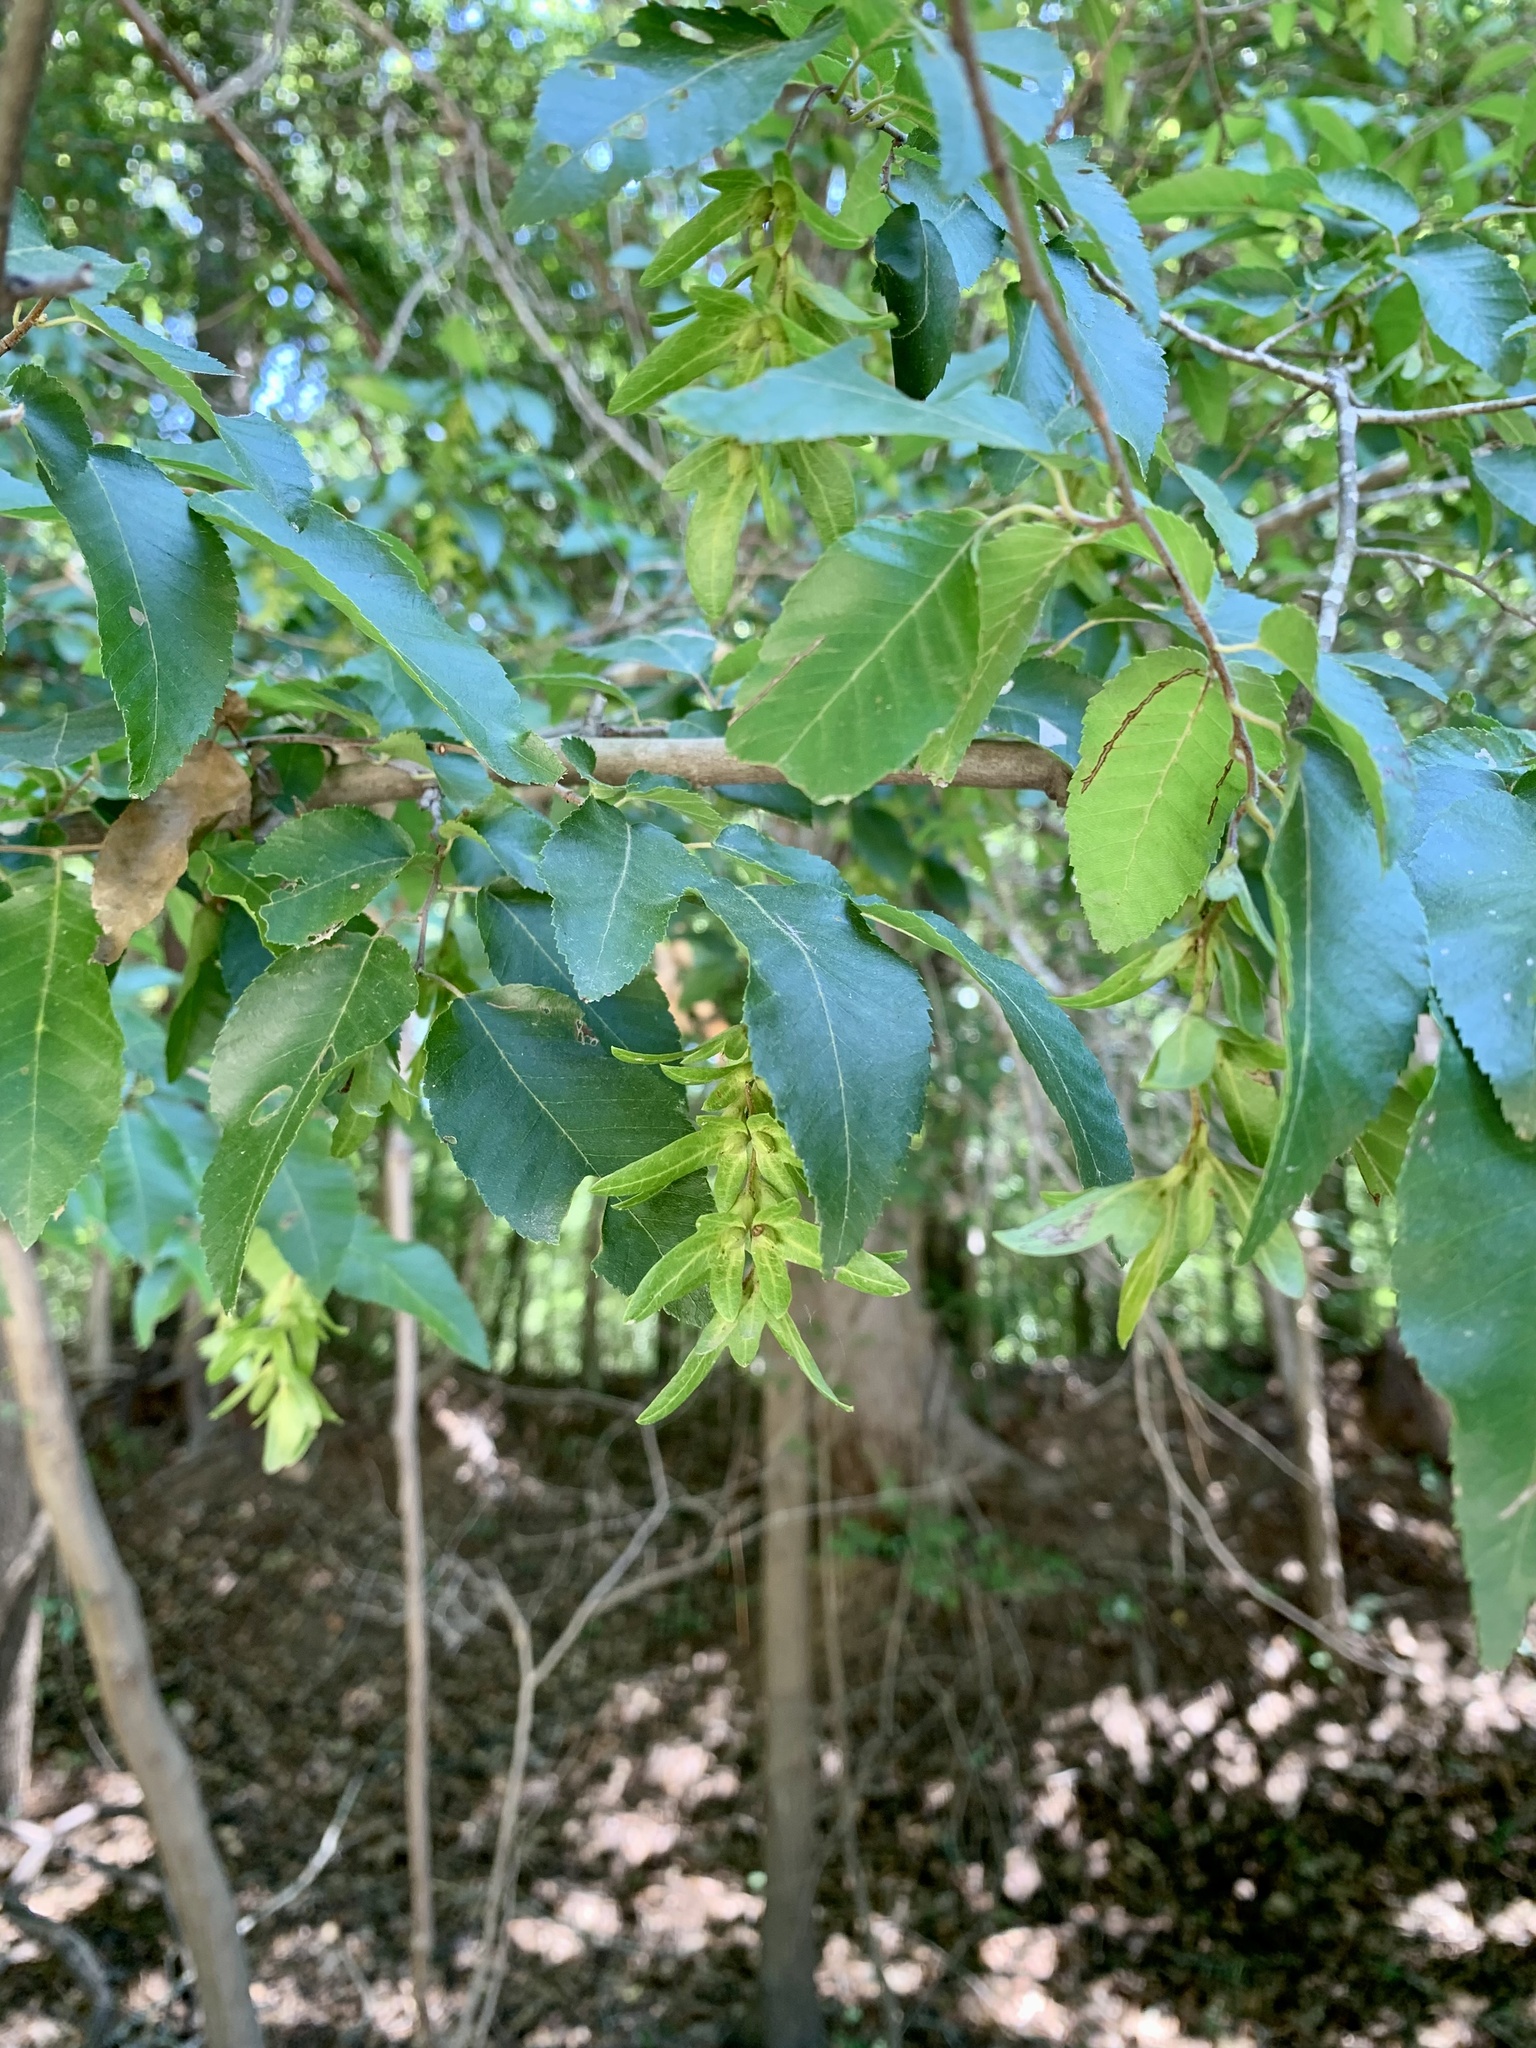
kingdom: Plantae
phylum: Tracheophyta
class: Magnoliopsida
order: Fagales
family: Betulaceae
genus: Carpinus
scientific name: Carpinus caroliniana
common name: American hornbeam
